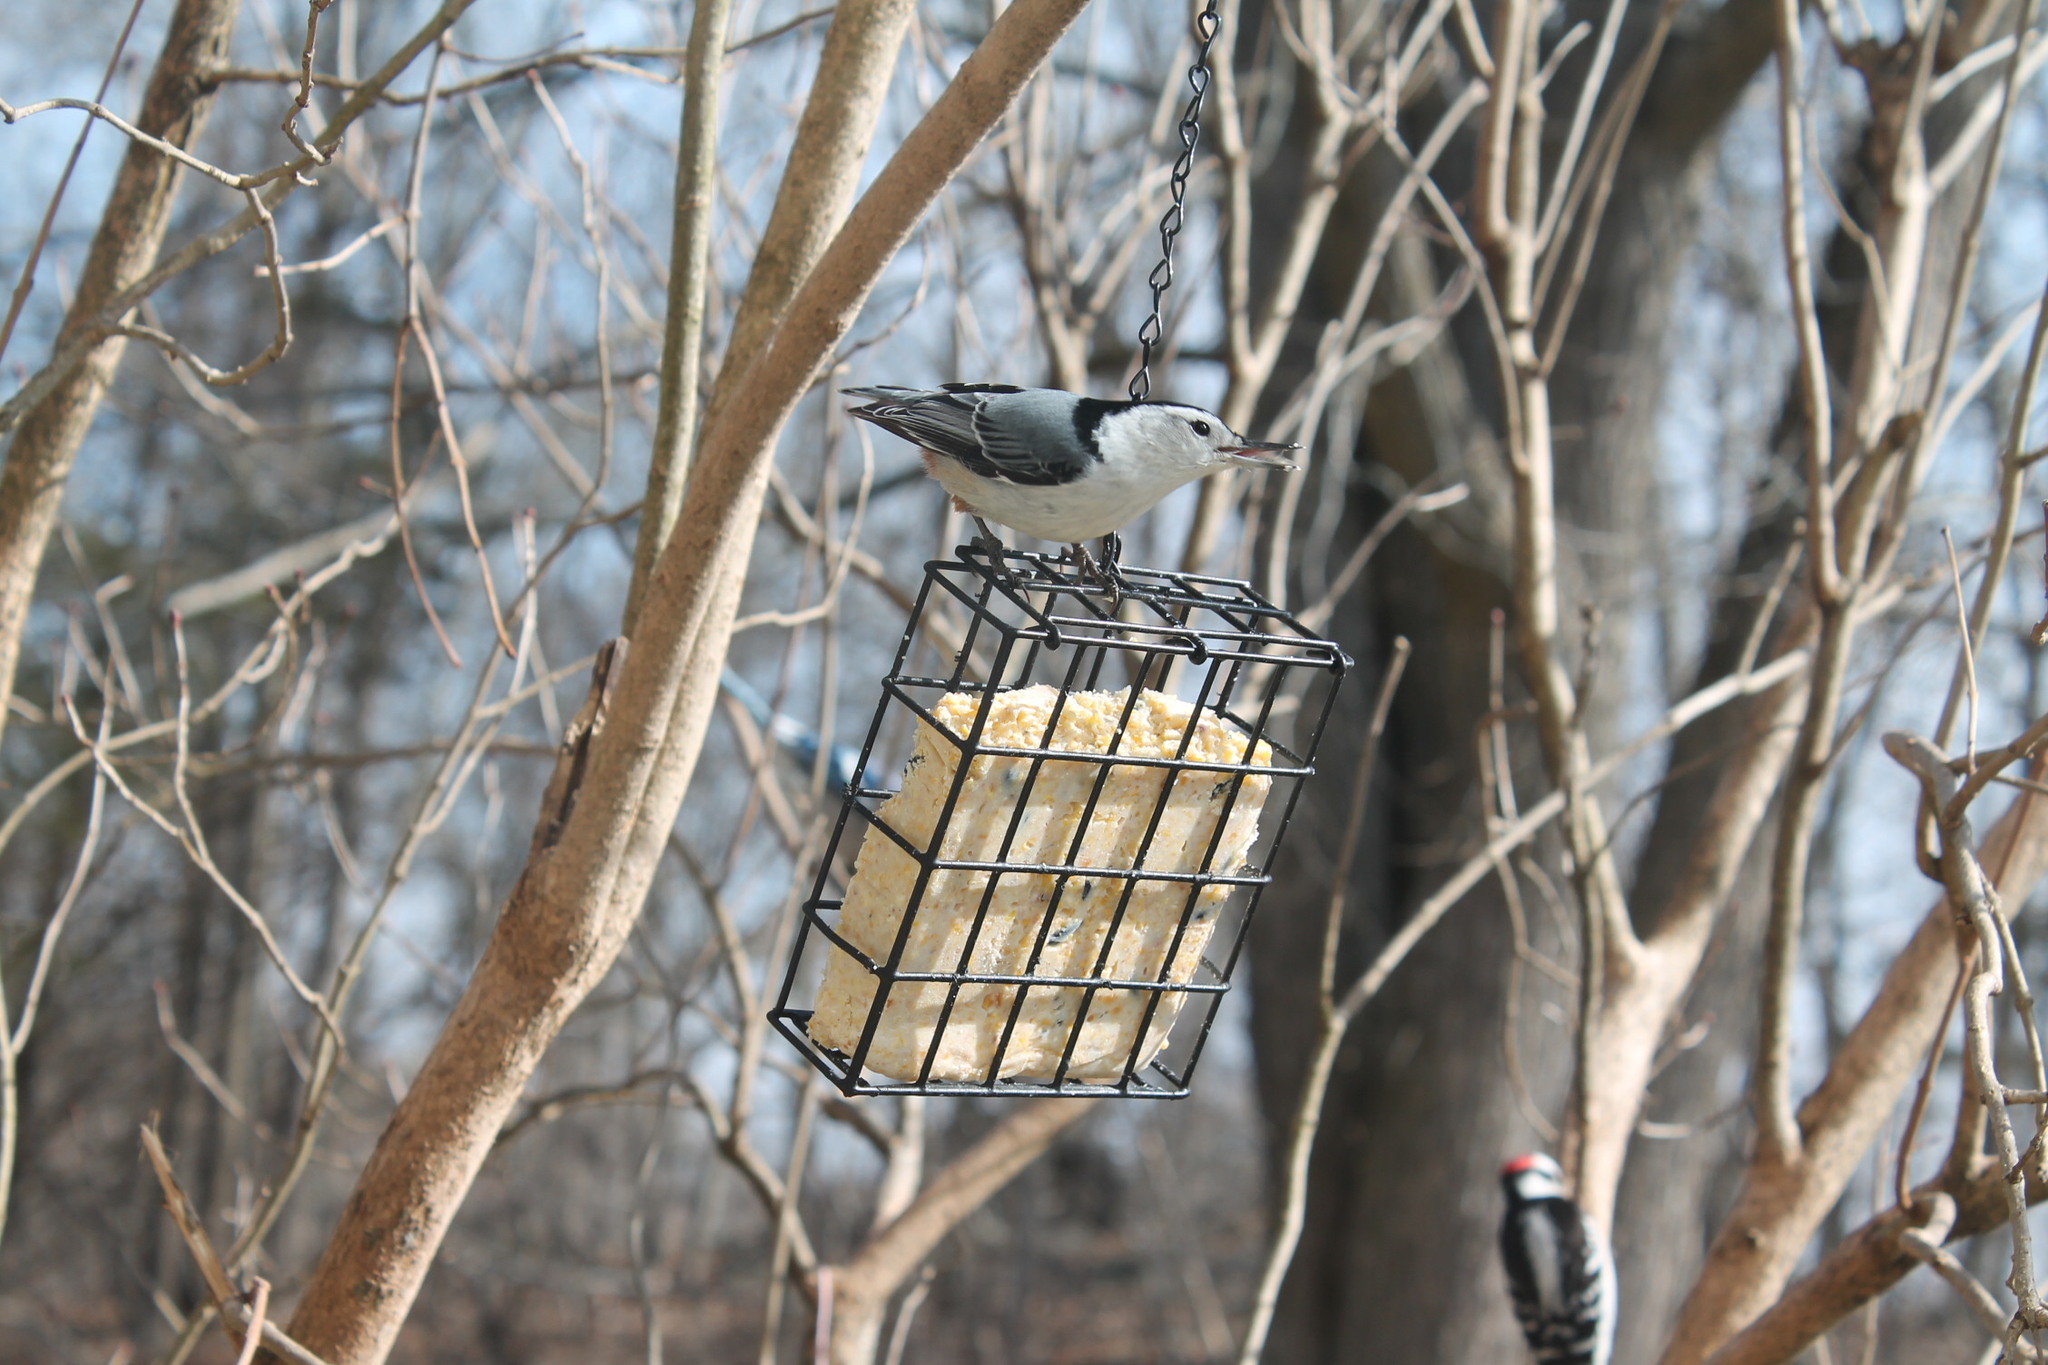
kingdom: Animalia
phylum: Chordata
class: Aves
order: Passeriformes
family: Sittidae
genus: Sitta
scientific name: Sitta carolinensis
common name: White-breasted nuthatch
